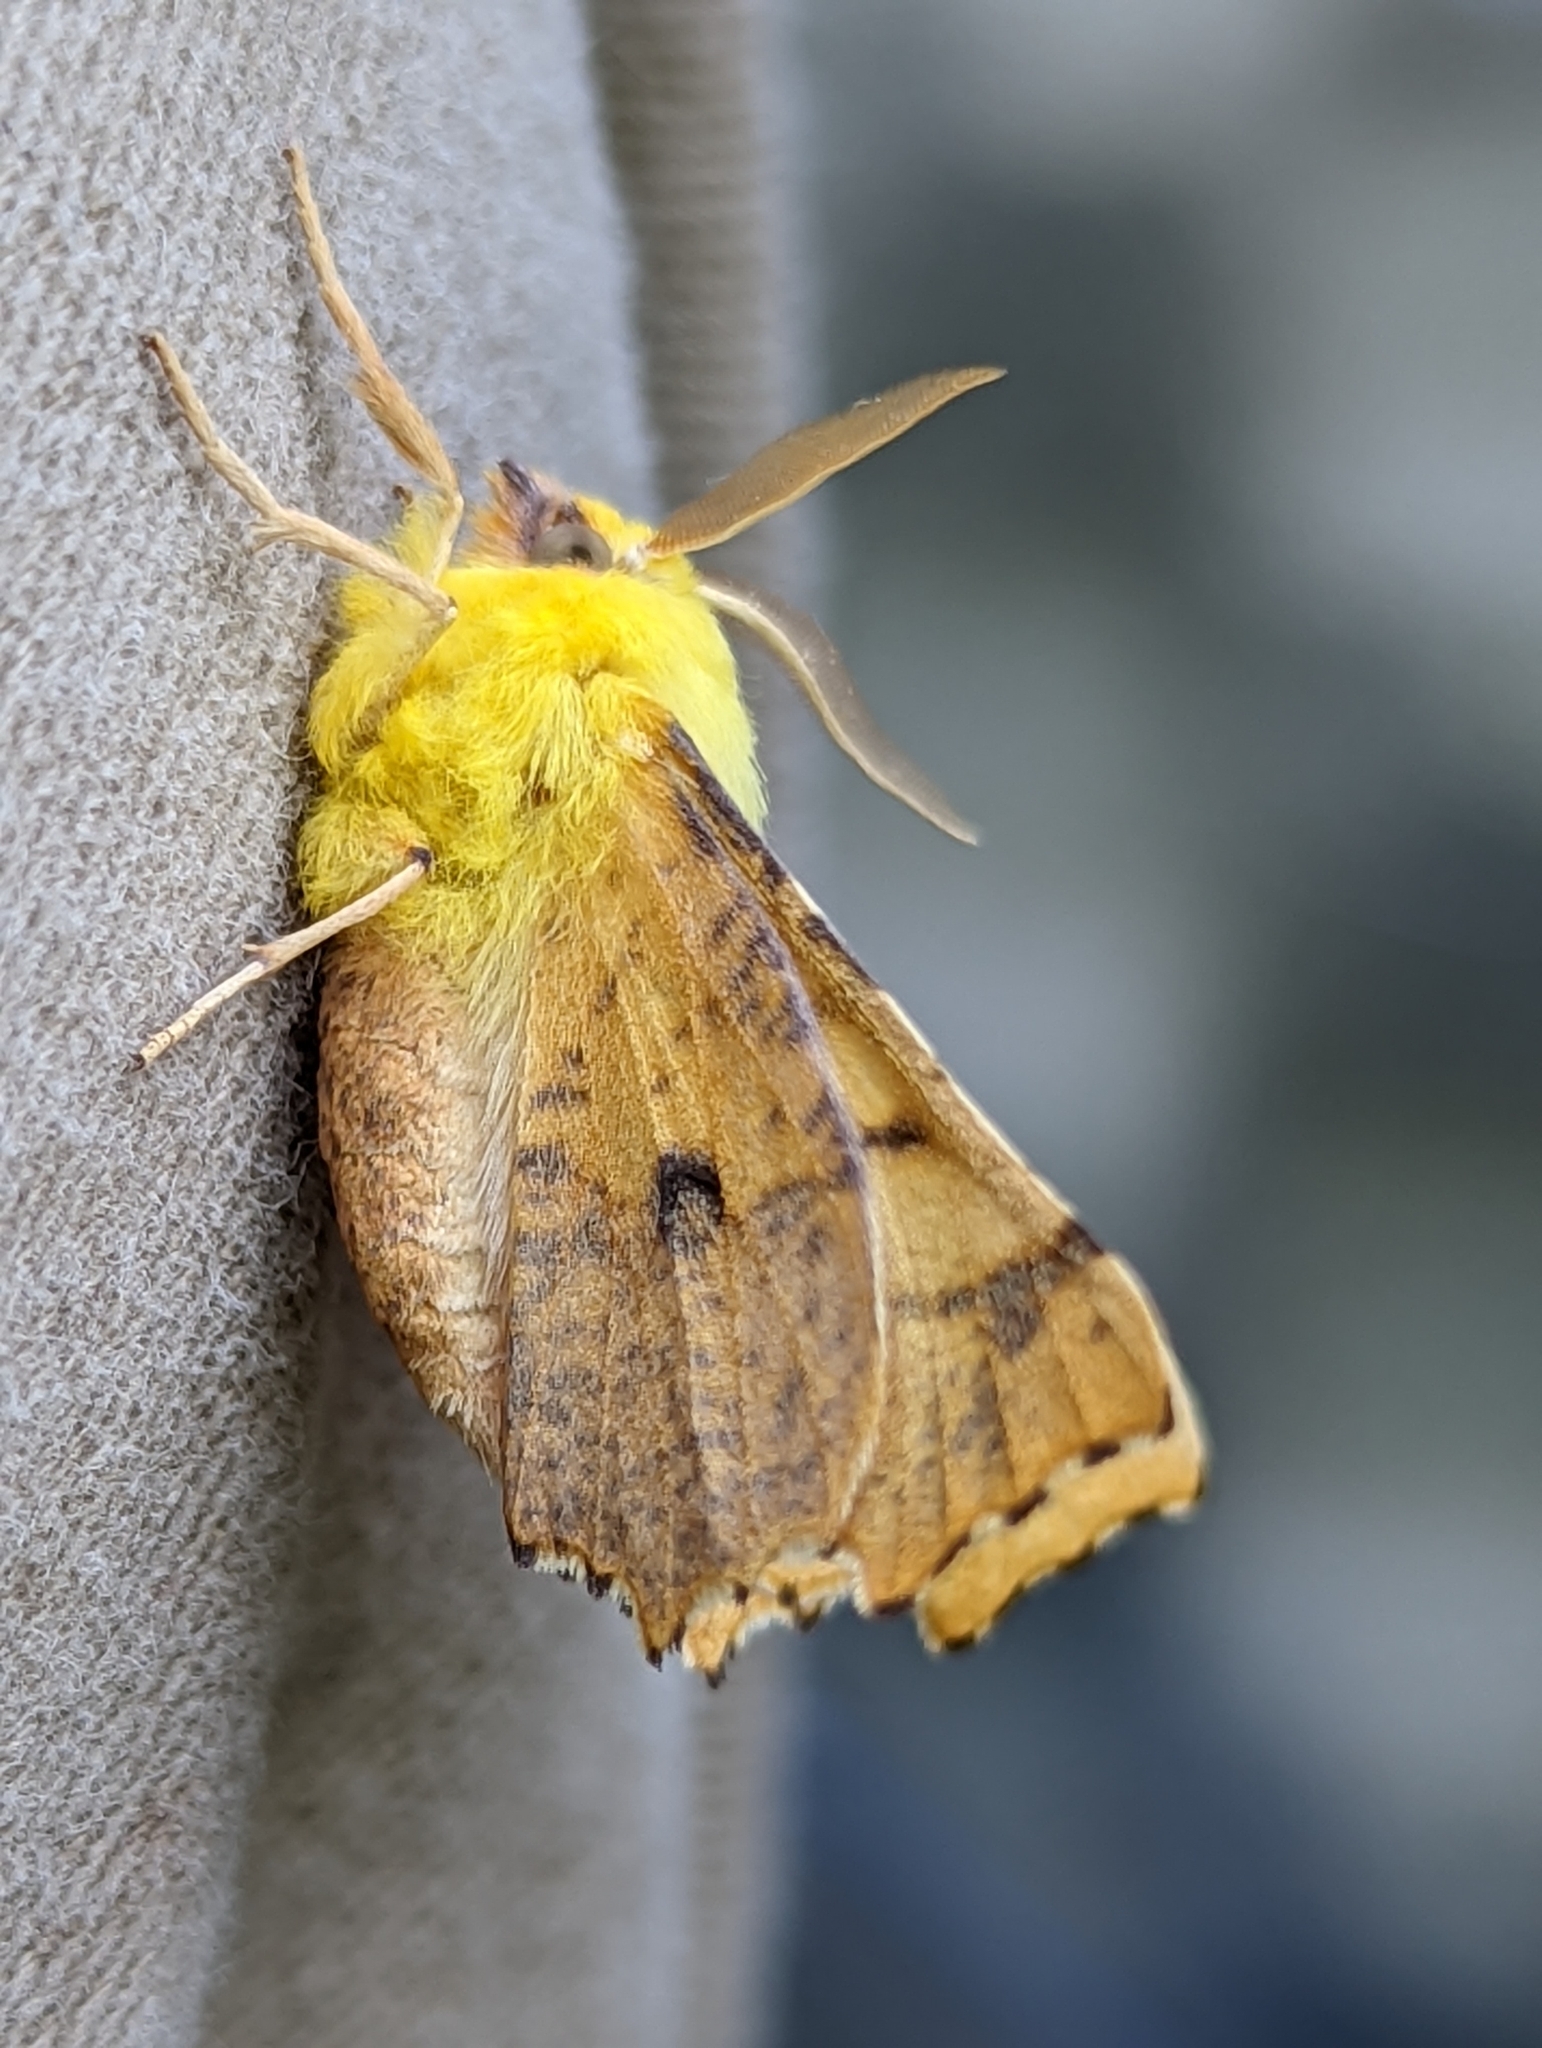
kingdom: Animalia
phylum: Arthropoda
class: Insecta
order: Lepidoptera
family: Geometridae
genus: Ennomos
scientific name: Ennomos alniaria
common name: Canary-shouldered thorn
